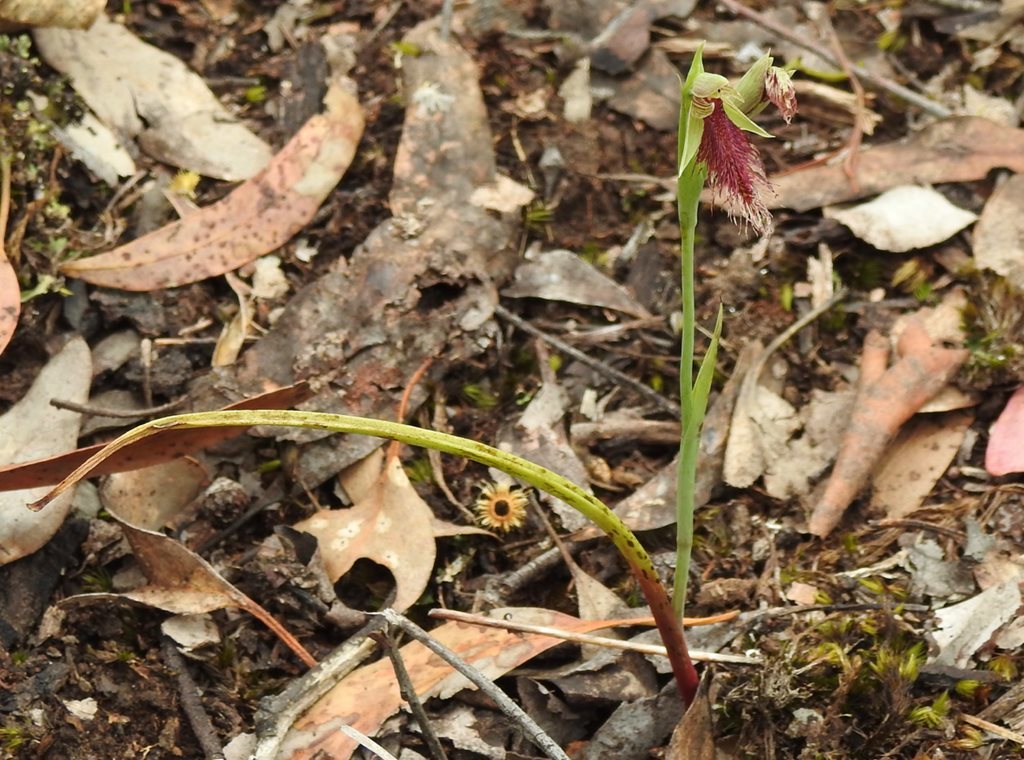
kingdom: Plantae
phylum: Tracheophyta
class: Liliopsida
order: Asparagales
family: Orchidaceae
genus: Calochilus
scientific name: Calochilus robertsonii
